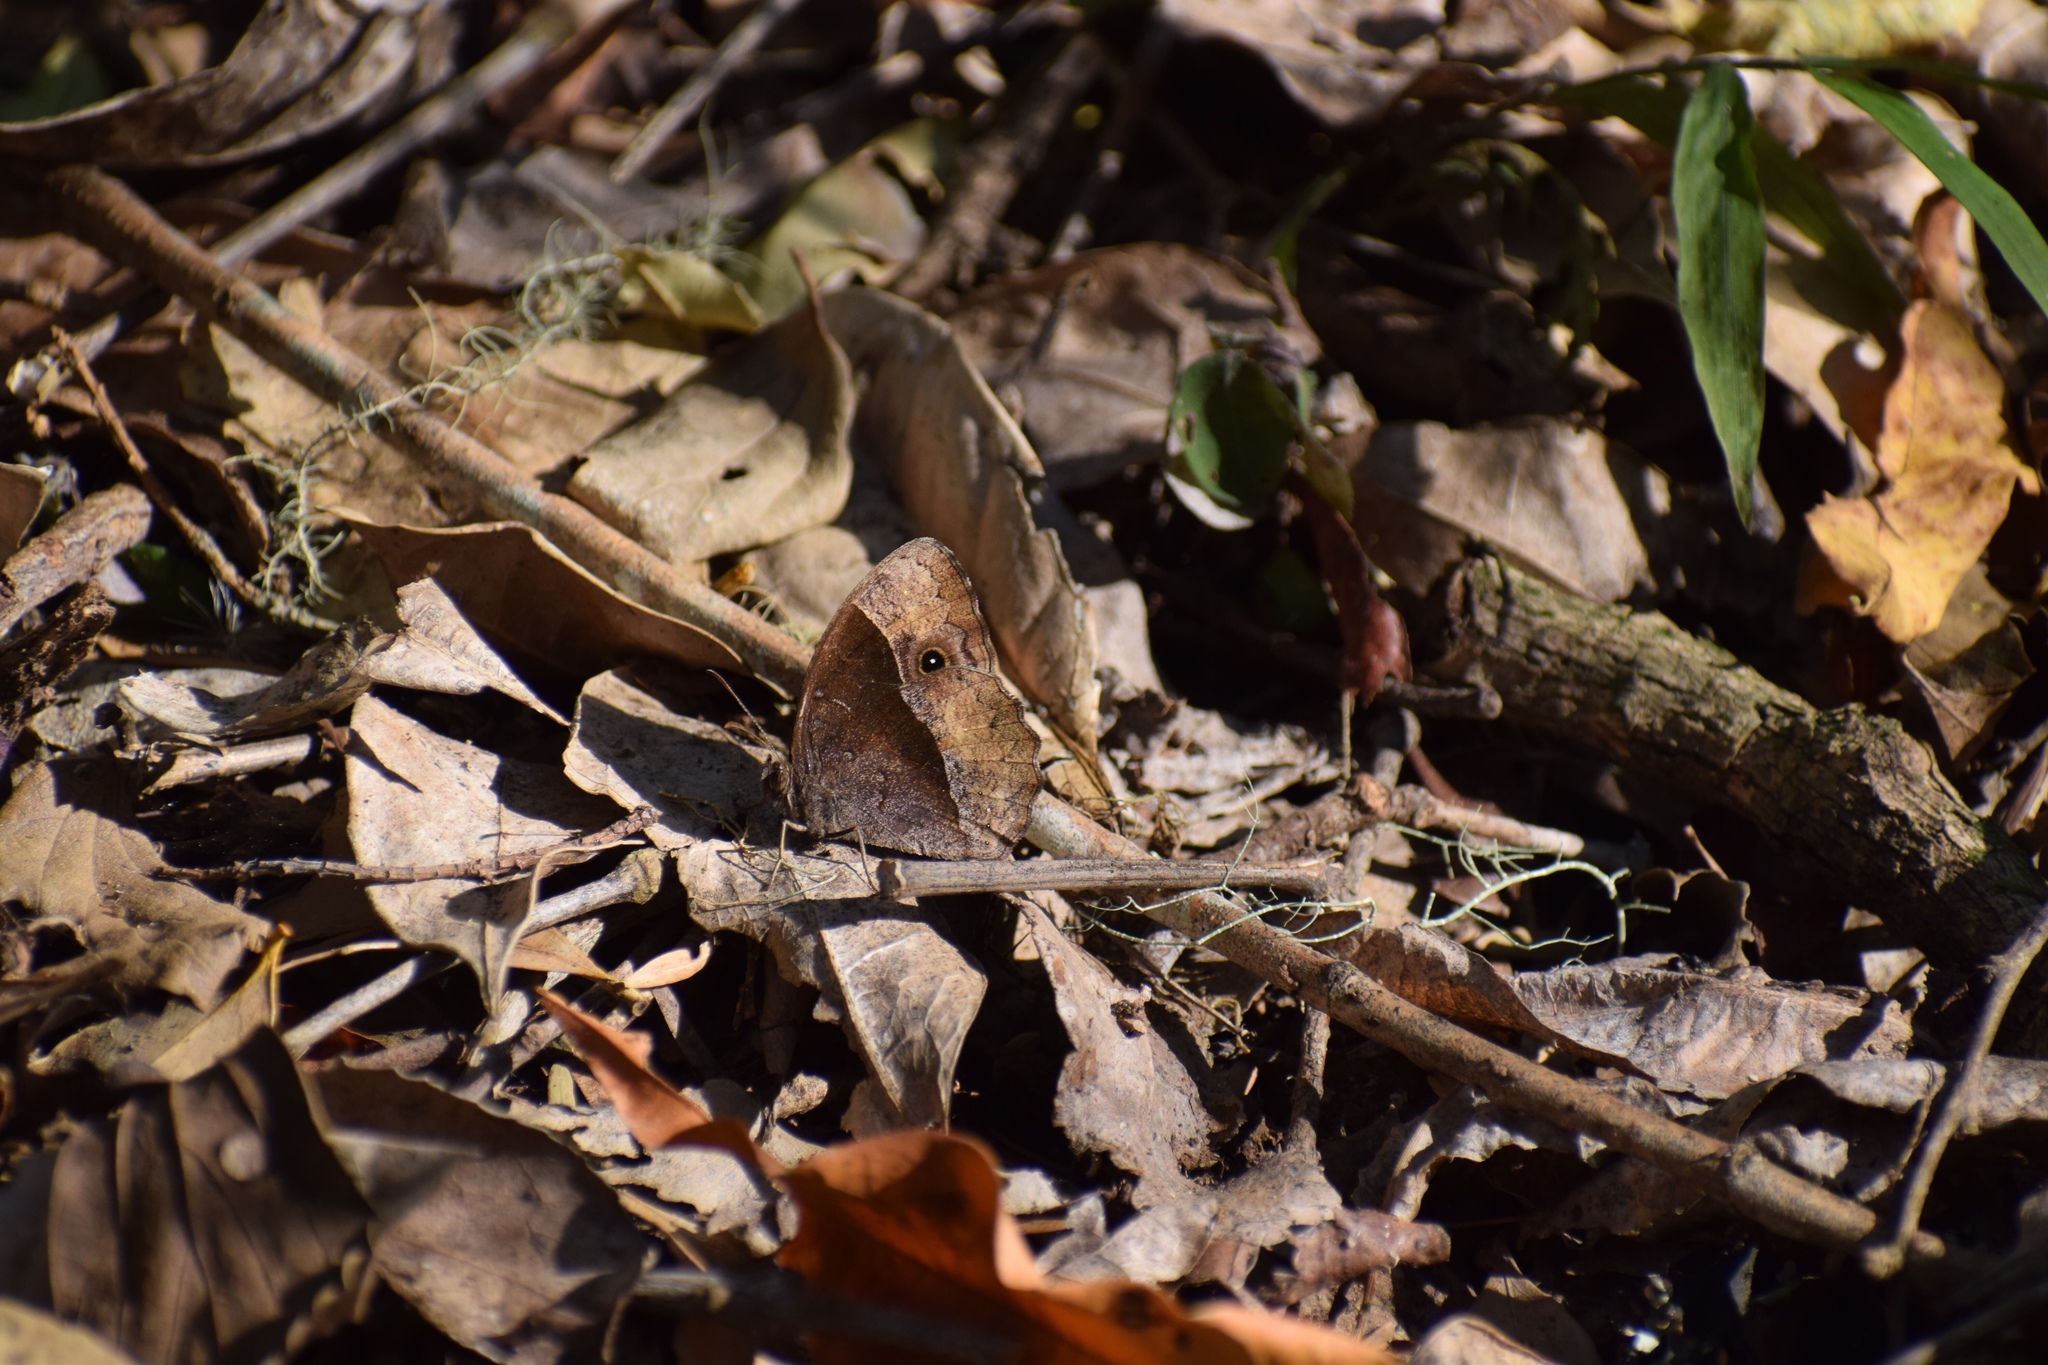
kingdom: Animalia
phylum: Arthropoda
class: Insecta
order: Lepidoptera
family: Nymphalidae
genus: Mycalesis
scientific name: Mycalesis rhacotis
